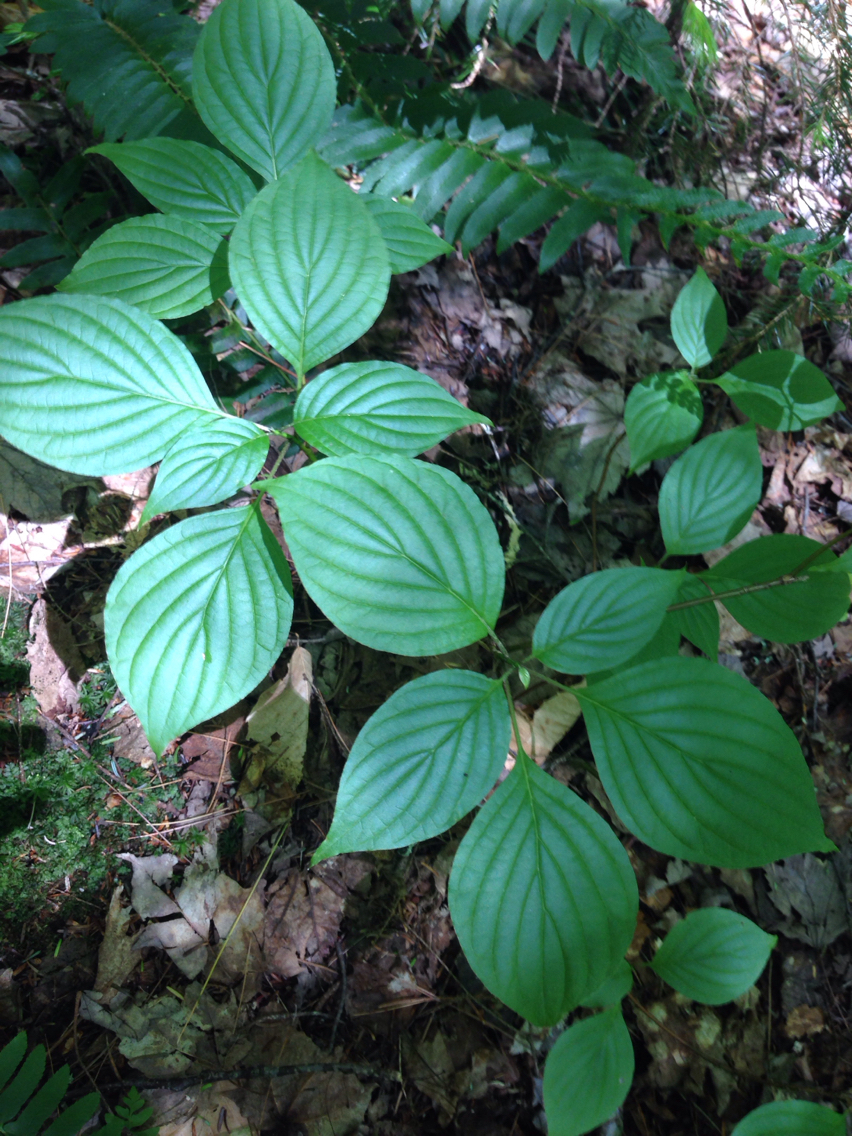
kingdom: Plantae
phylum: Tracheophyta
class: Magnoliopsida
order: Cornales
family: Cornaceae
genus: Cornus
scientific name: Cornus rugosa
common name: Round-leaf dogwood
